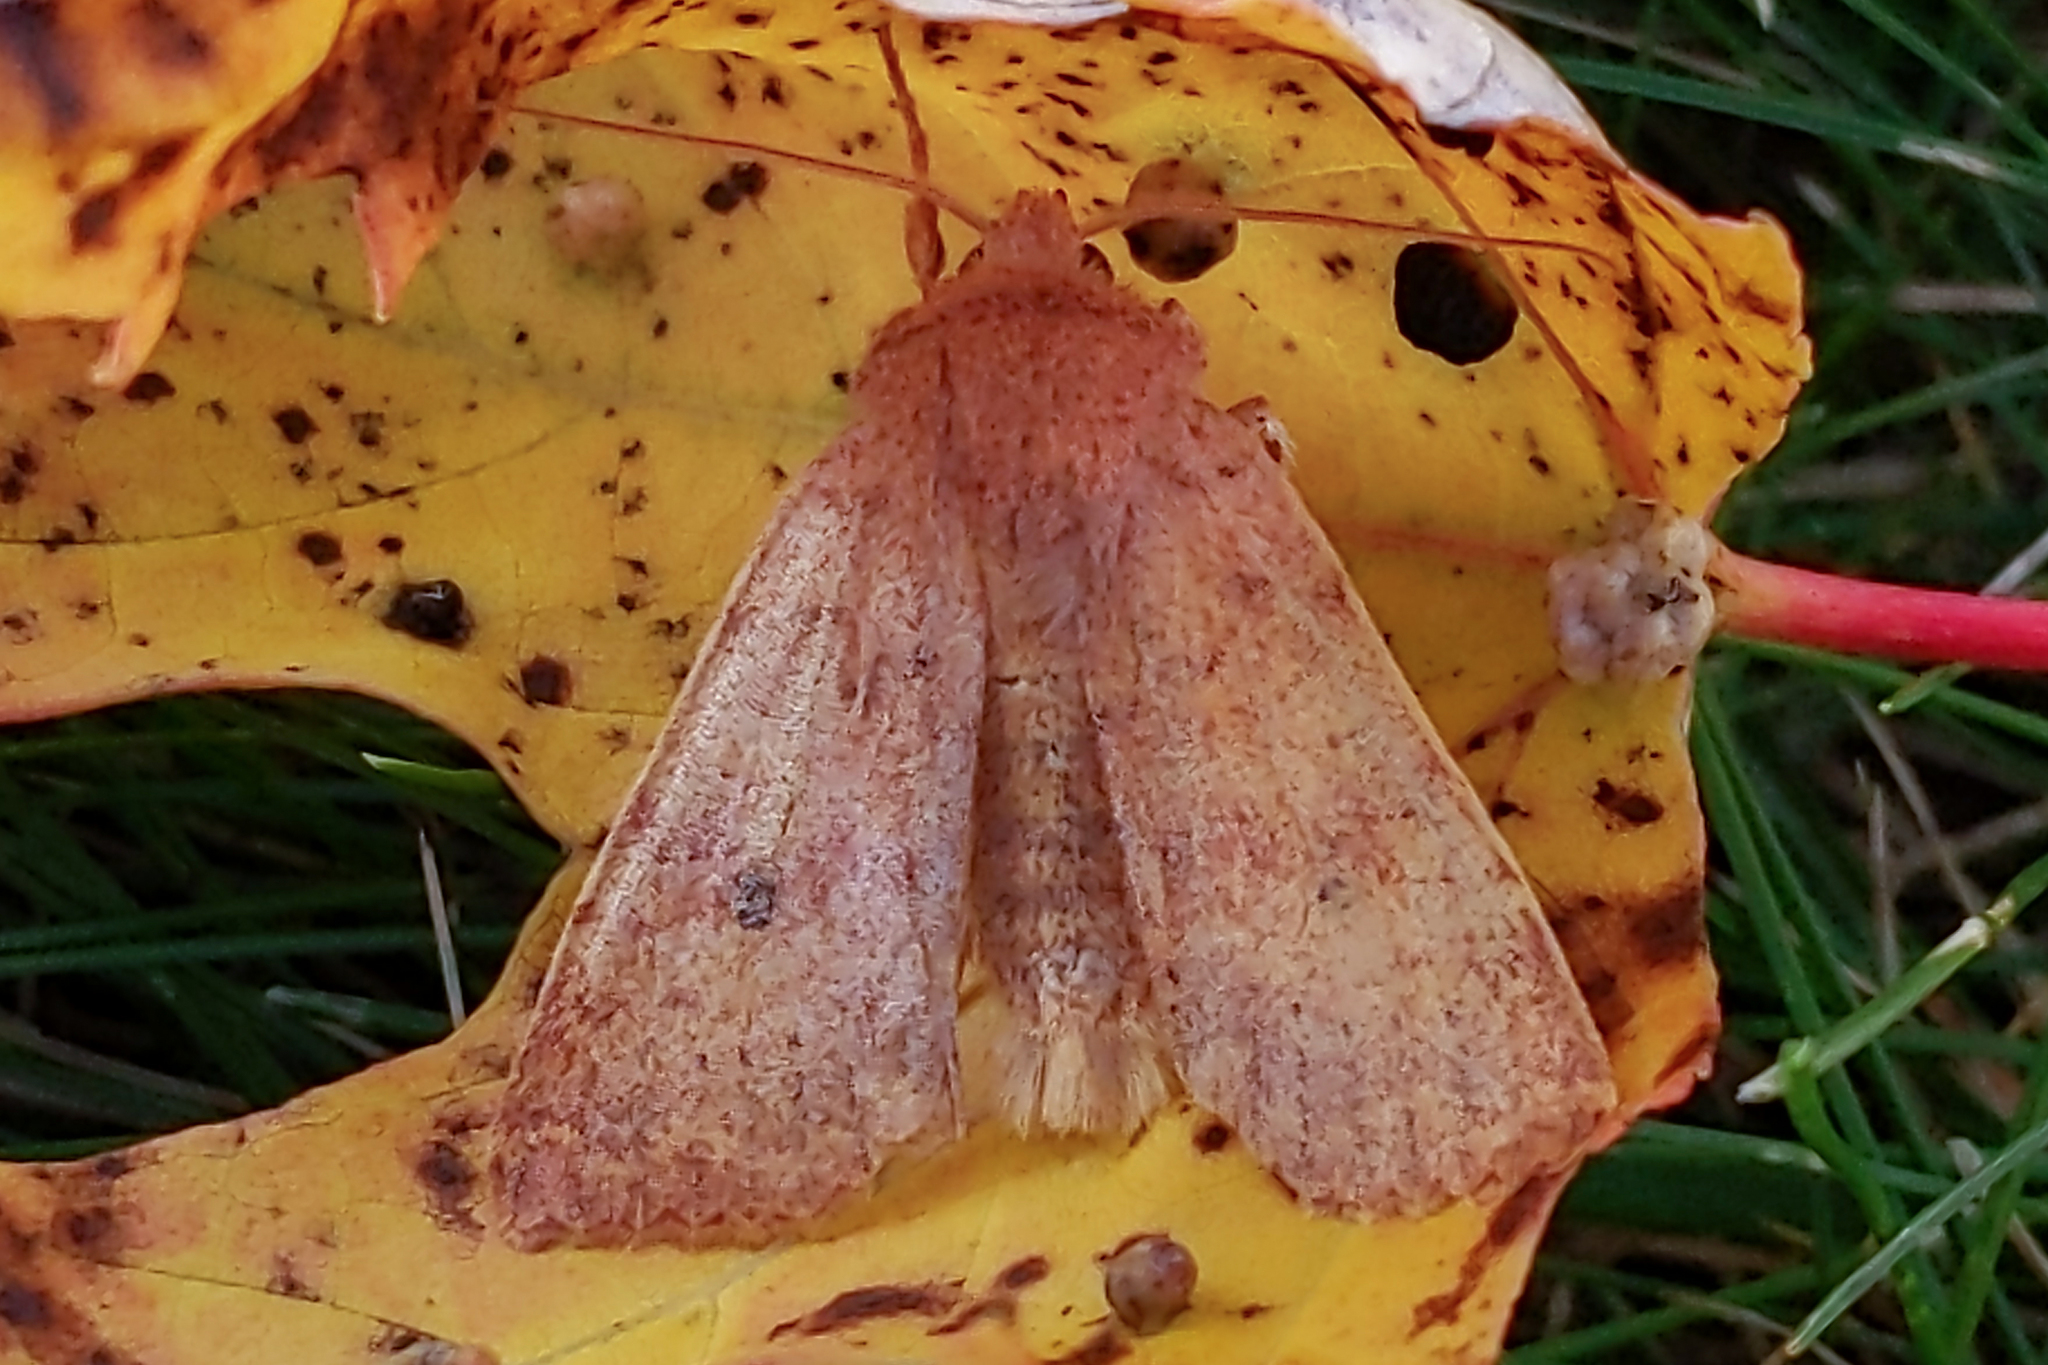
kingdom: Animalia
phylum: Arthropoda
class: Insecta
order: Lepidoptera
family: Noctuidae
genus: Agrochola
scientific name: Agrochola bicolorago
